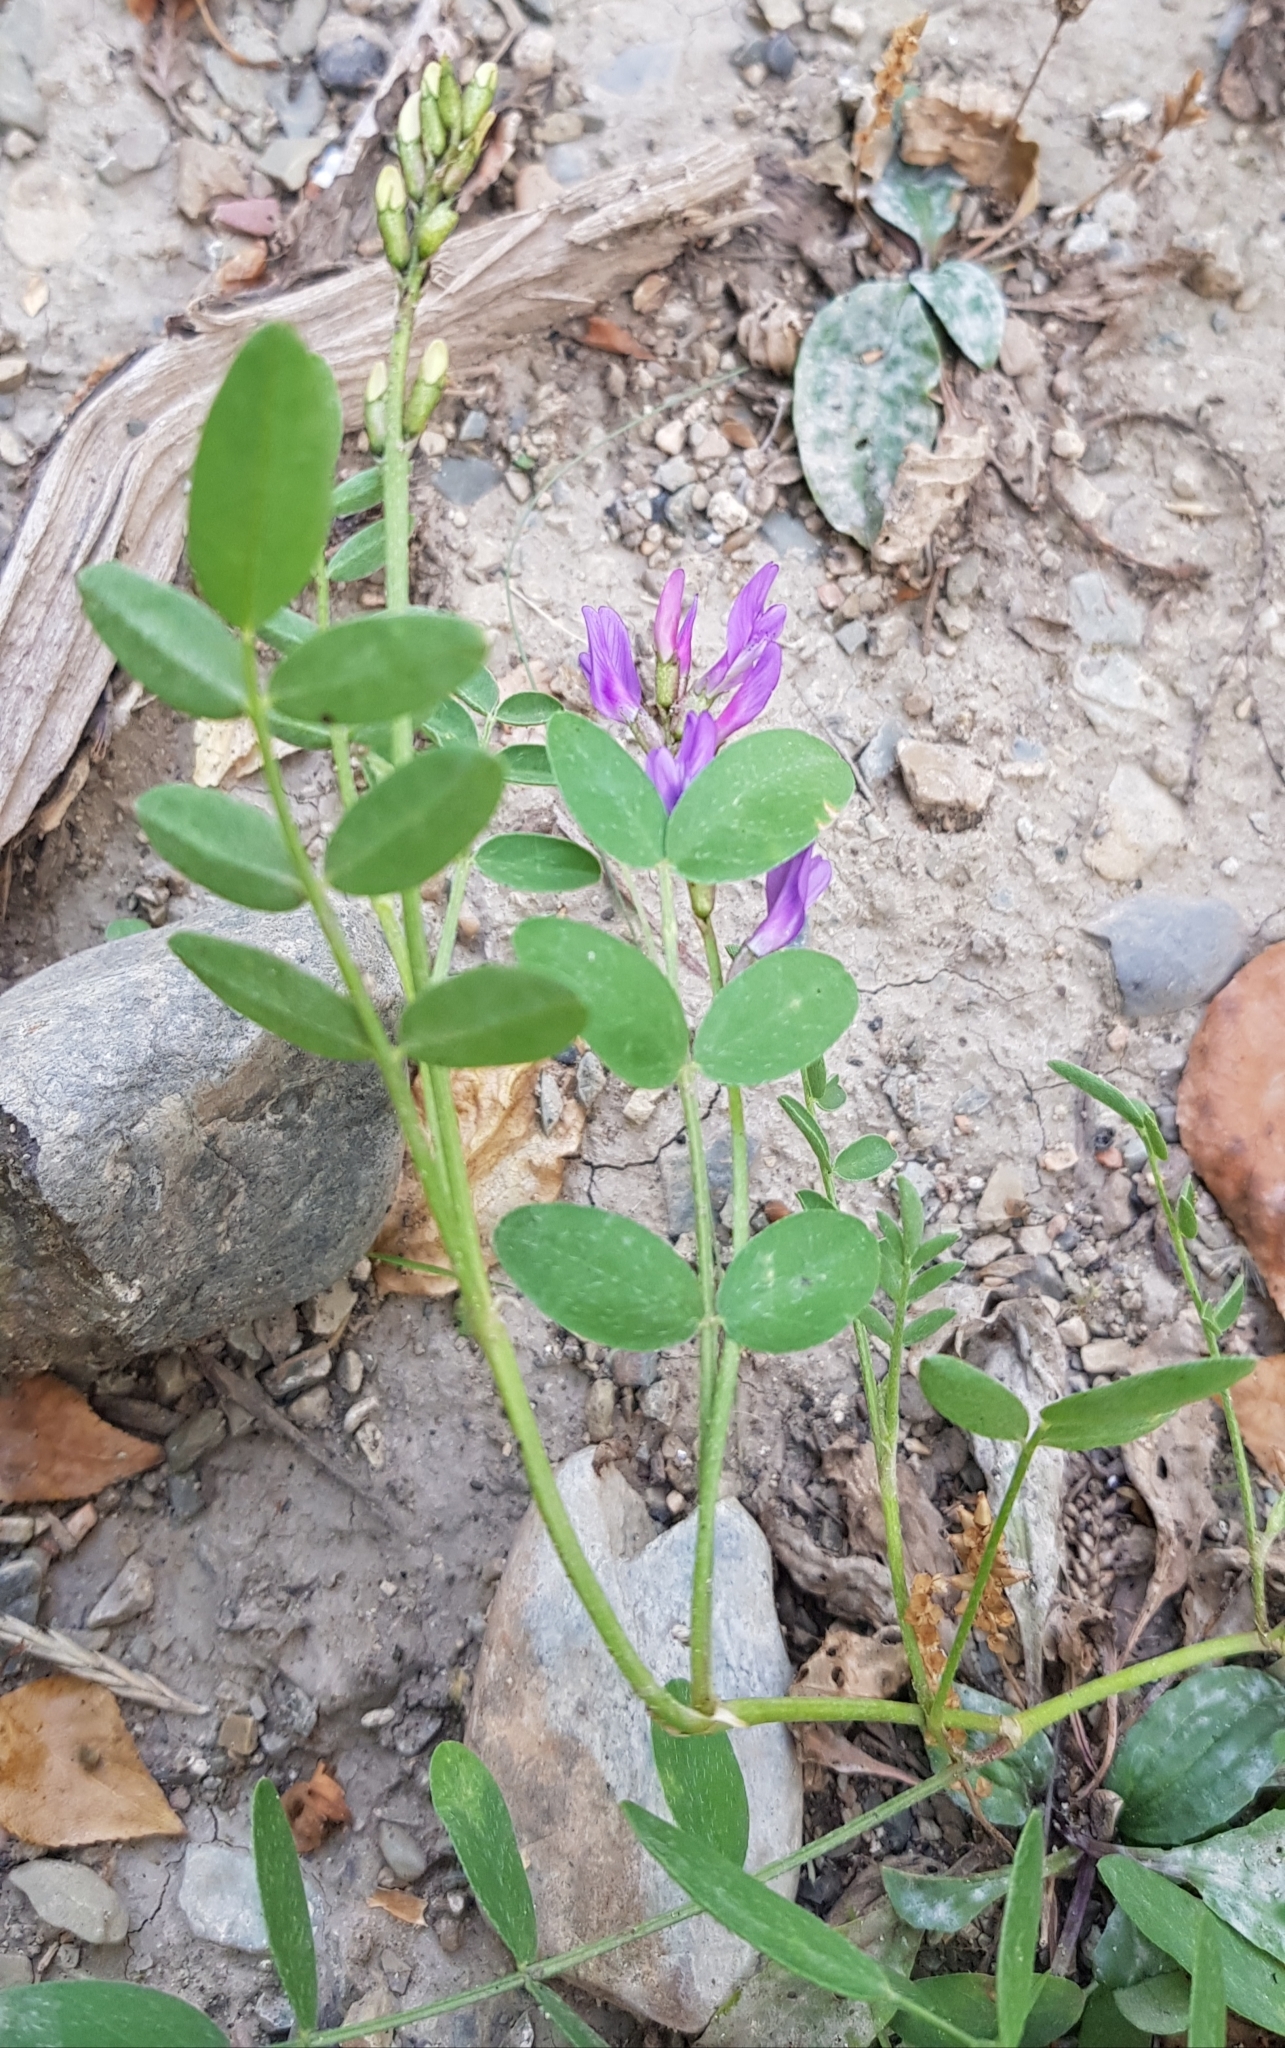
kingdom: Plantae
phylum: Tracheophyta
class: Magnoliopsida
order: Fabales
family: Fabaceae
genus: Astragalus
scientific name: Astragalus laxmannii
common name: Laxmann's milk-vetch
